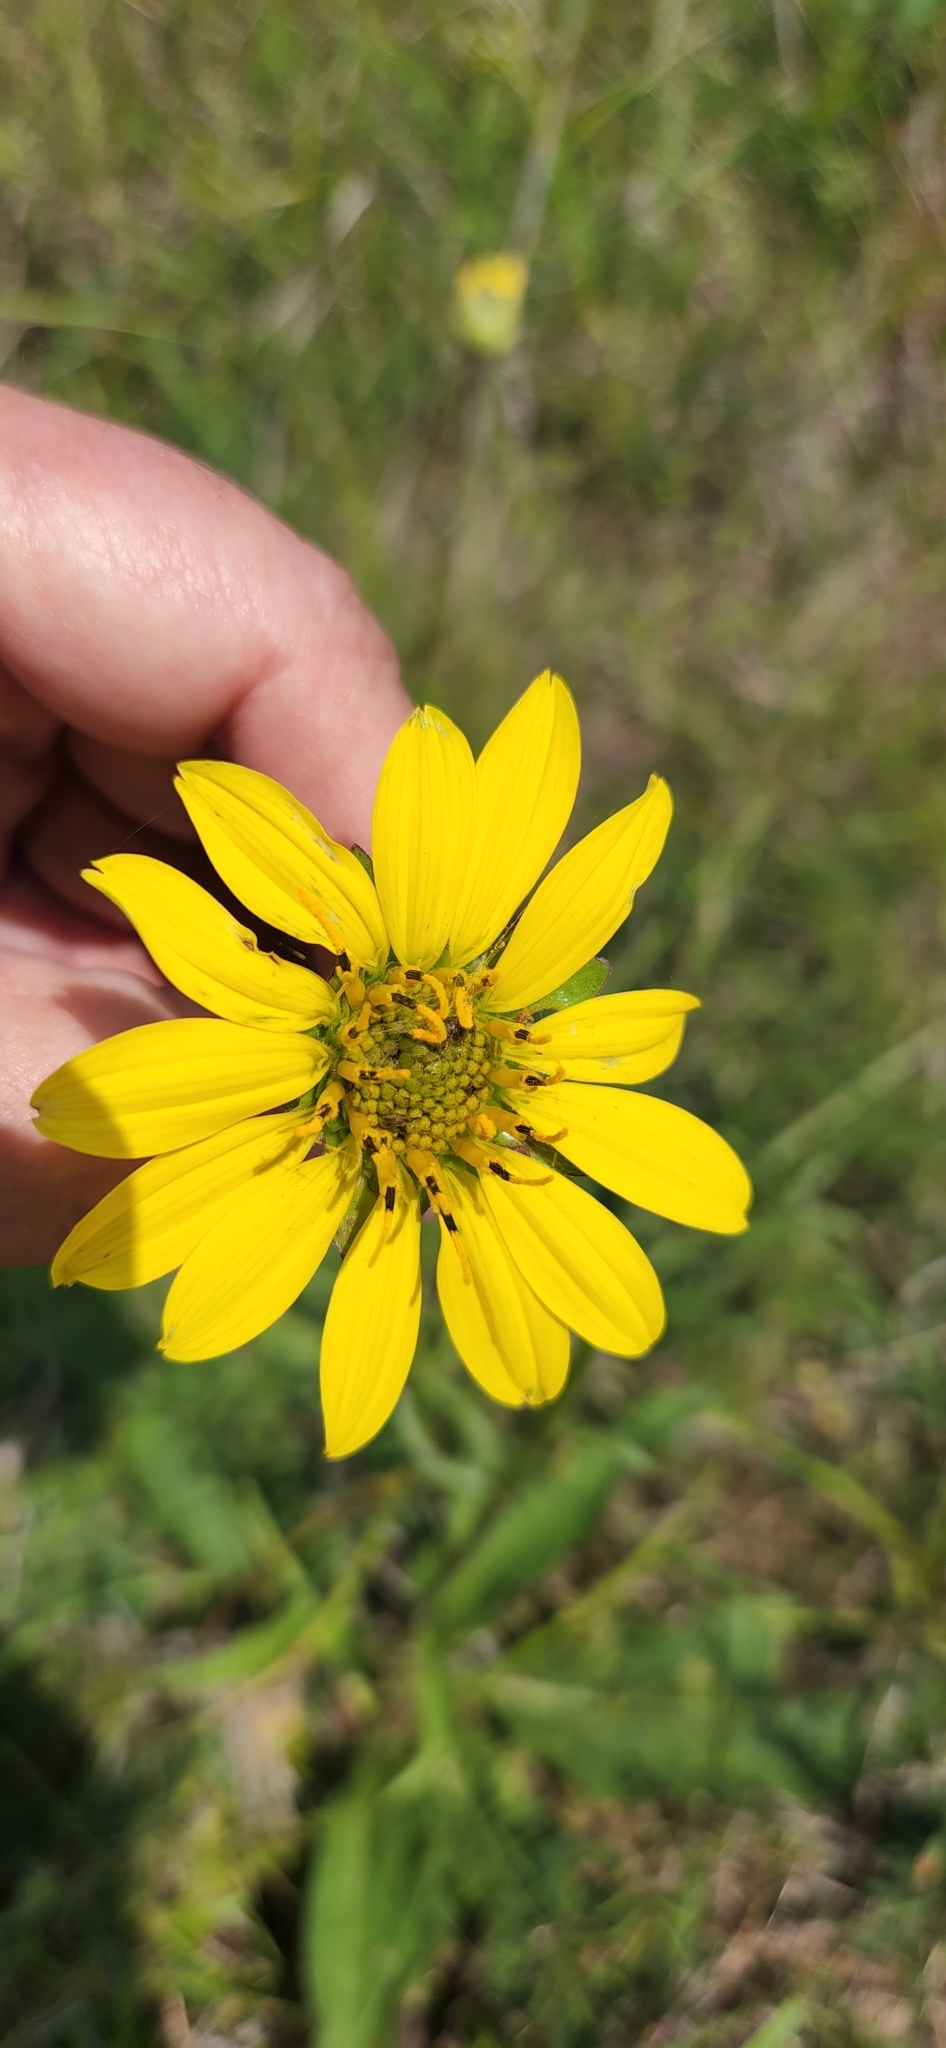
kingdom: Plantae
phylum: Tracheophyta
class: Magnoliopsida
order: Asterales
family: Asteraceae
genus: Silphium
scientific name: Silphium radula
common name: Roughleaf rosinweed
